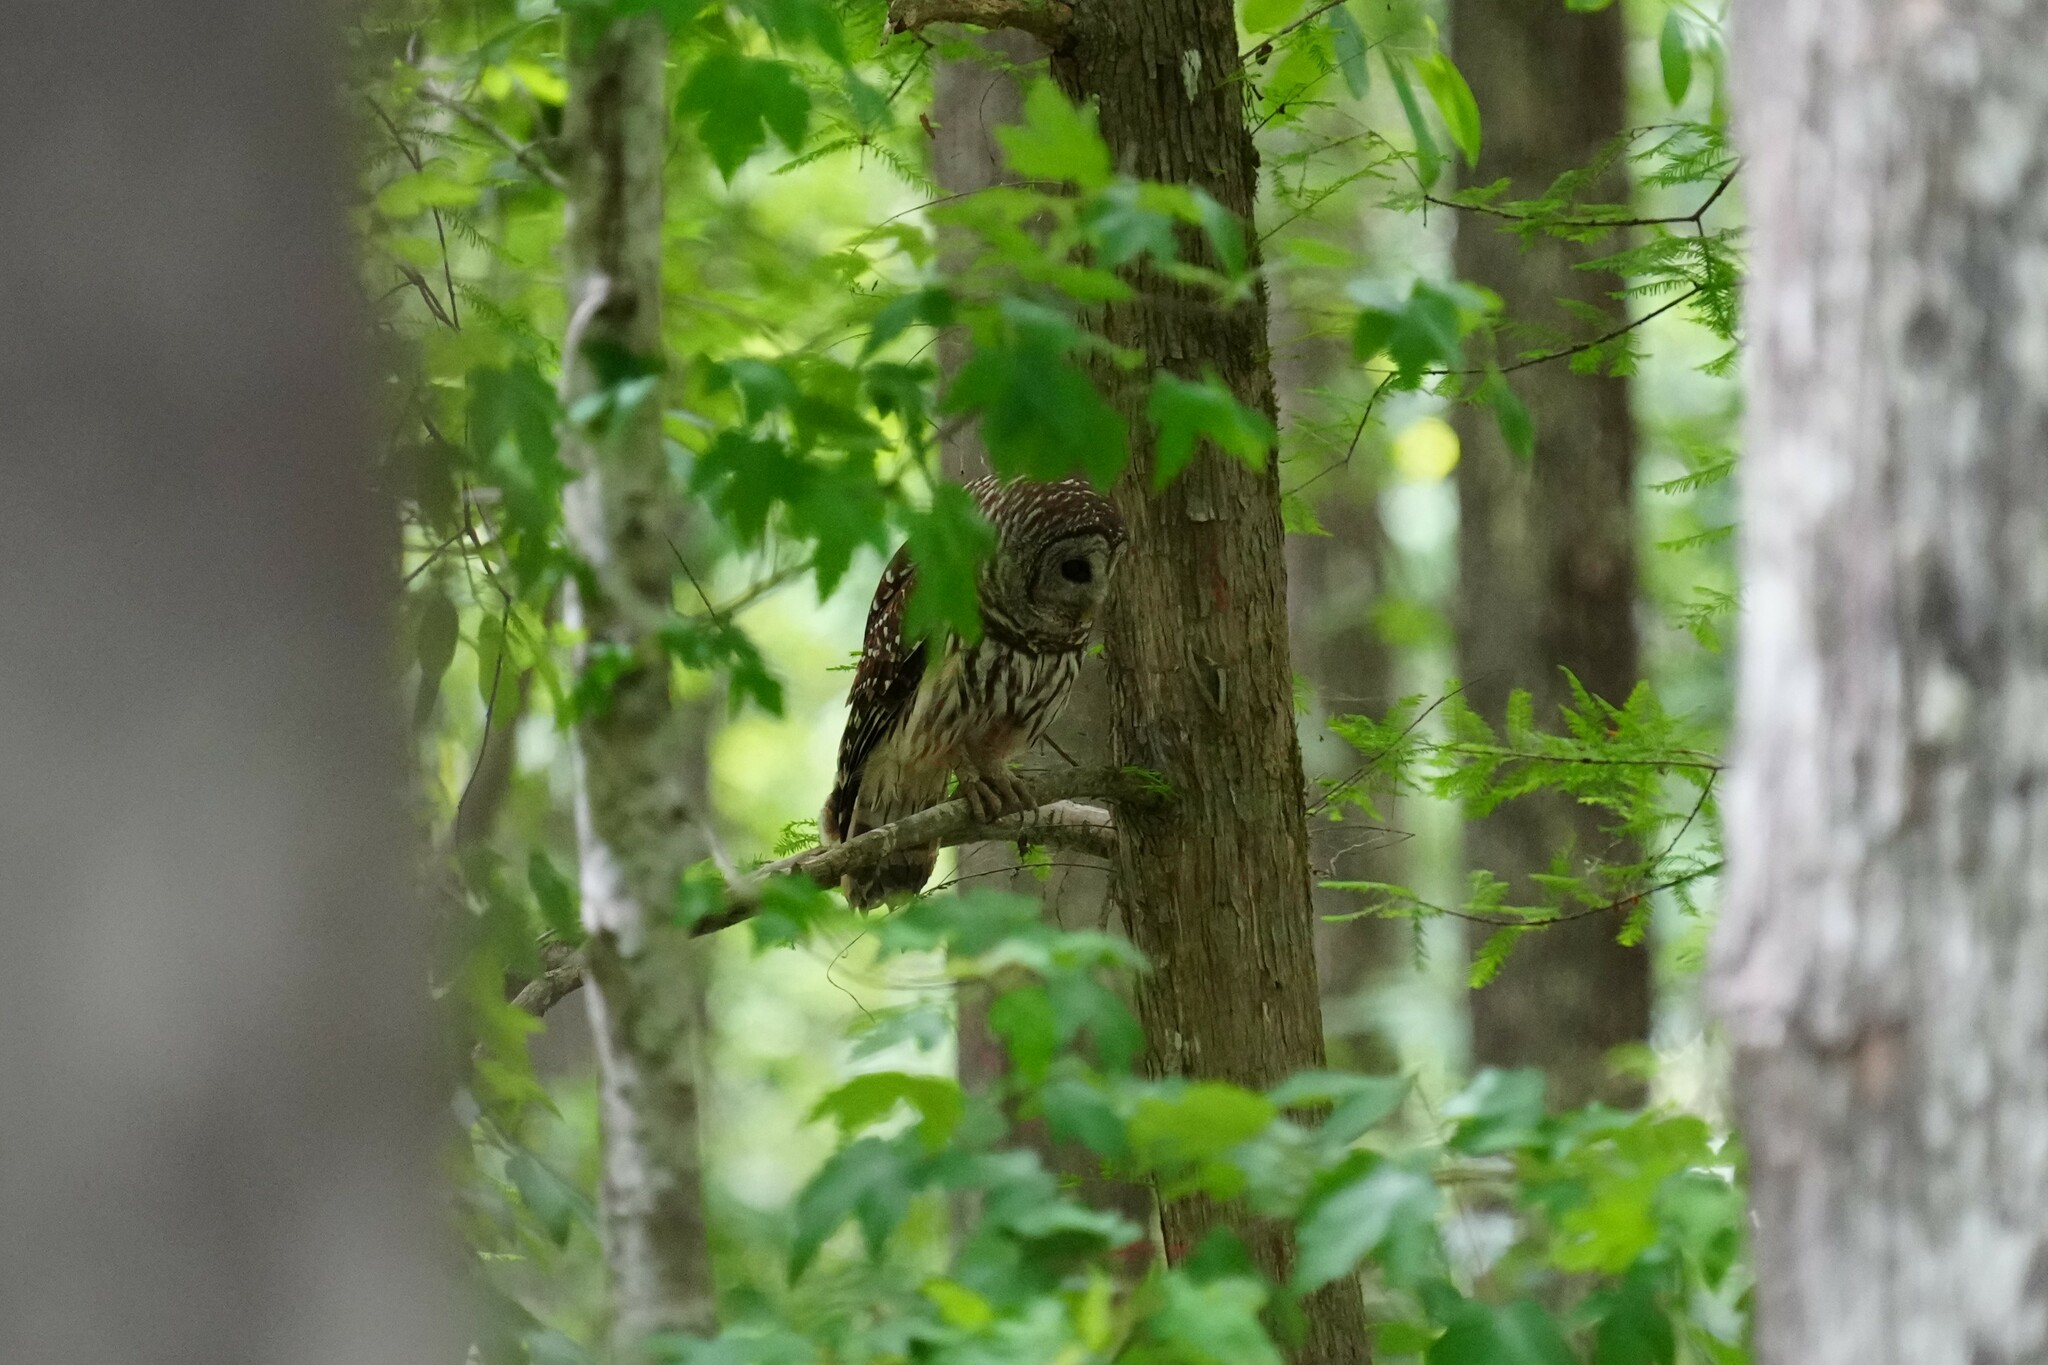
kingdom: Animalia
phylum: Chordata
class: Aves
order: Strigiformes
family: Strigidae
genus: Strix
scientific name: Strix varia
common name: Barred owl
